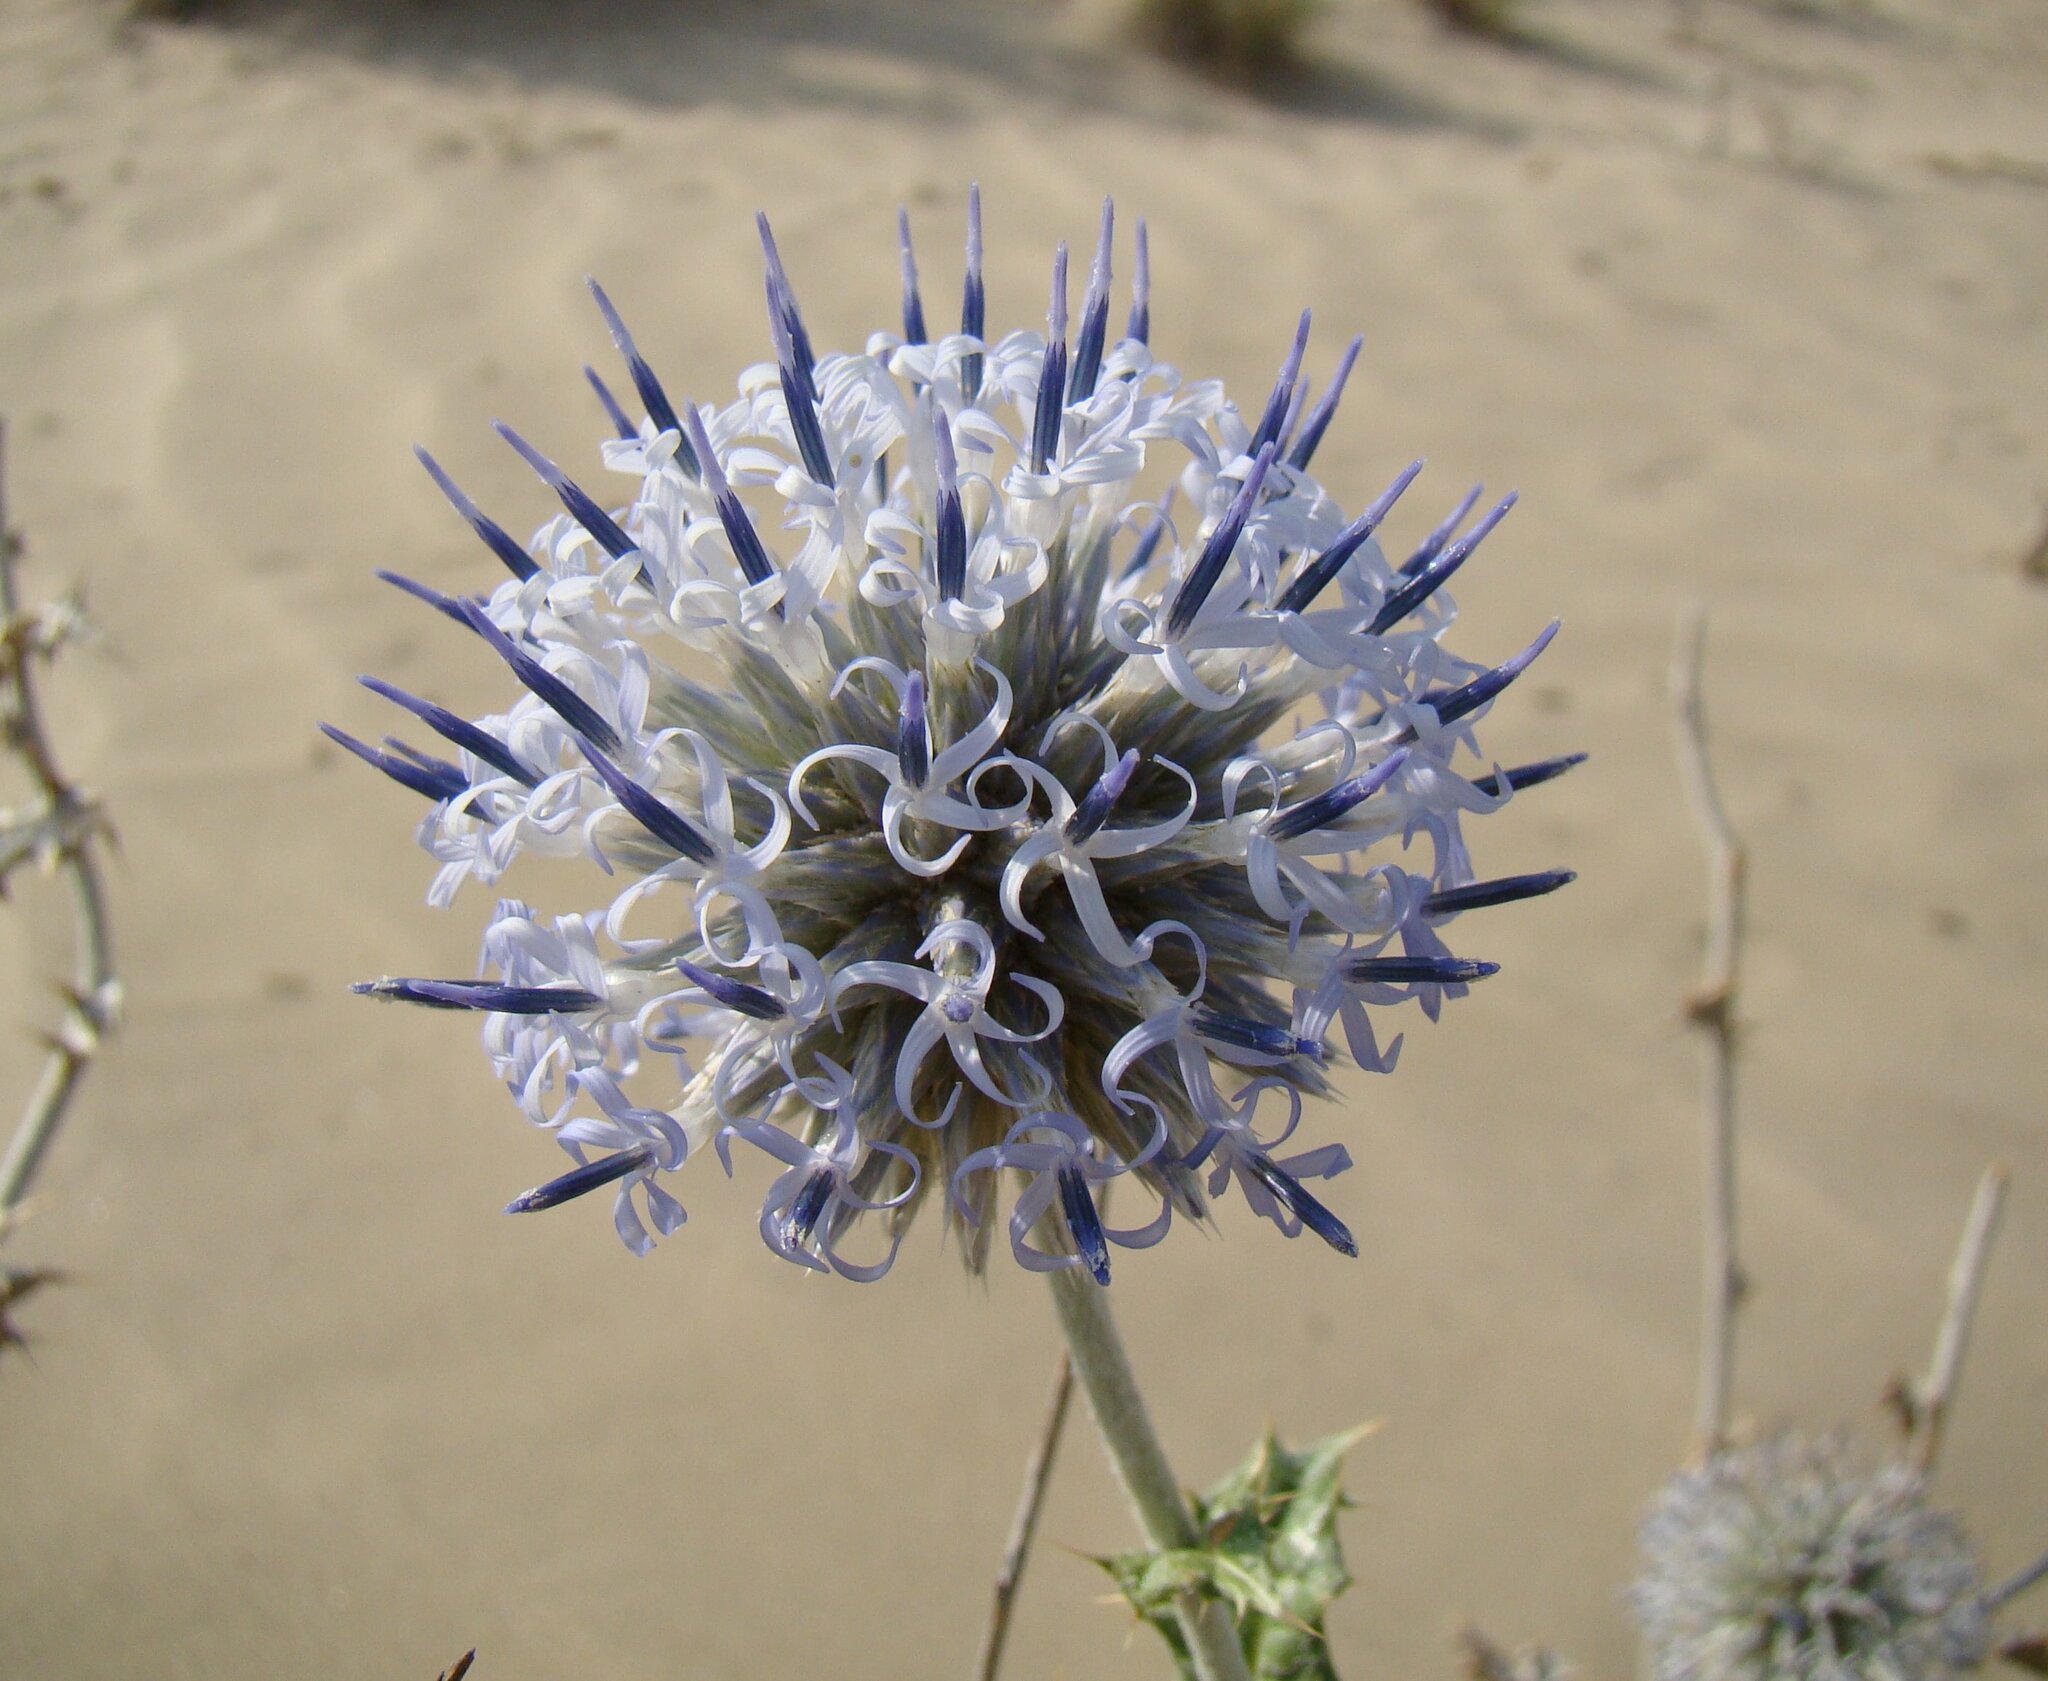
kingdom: Plantae
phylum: Tracheophyta
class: Magnoliopsida
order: Asterales
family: Asteraceae
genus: Echinops
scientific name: Echinops albicaulis
